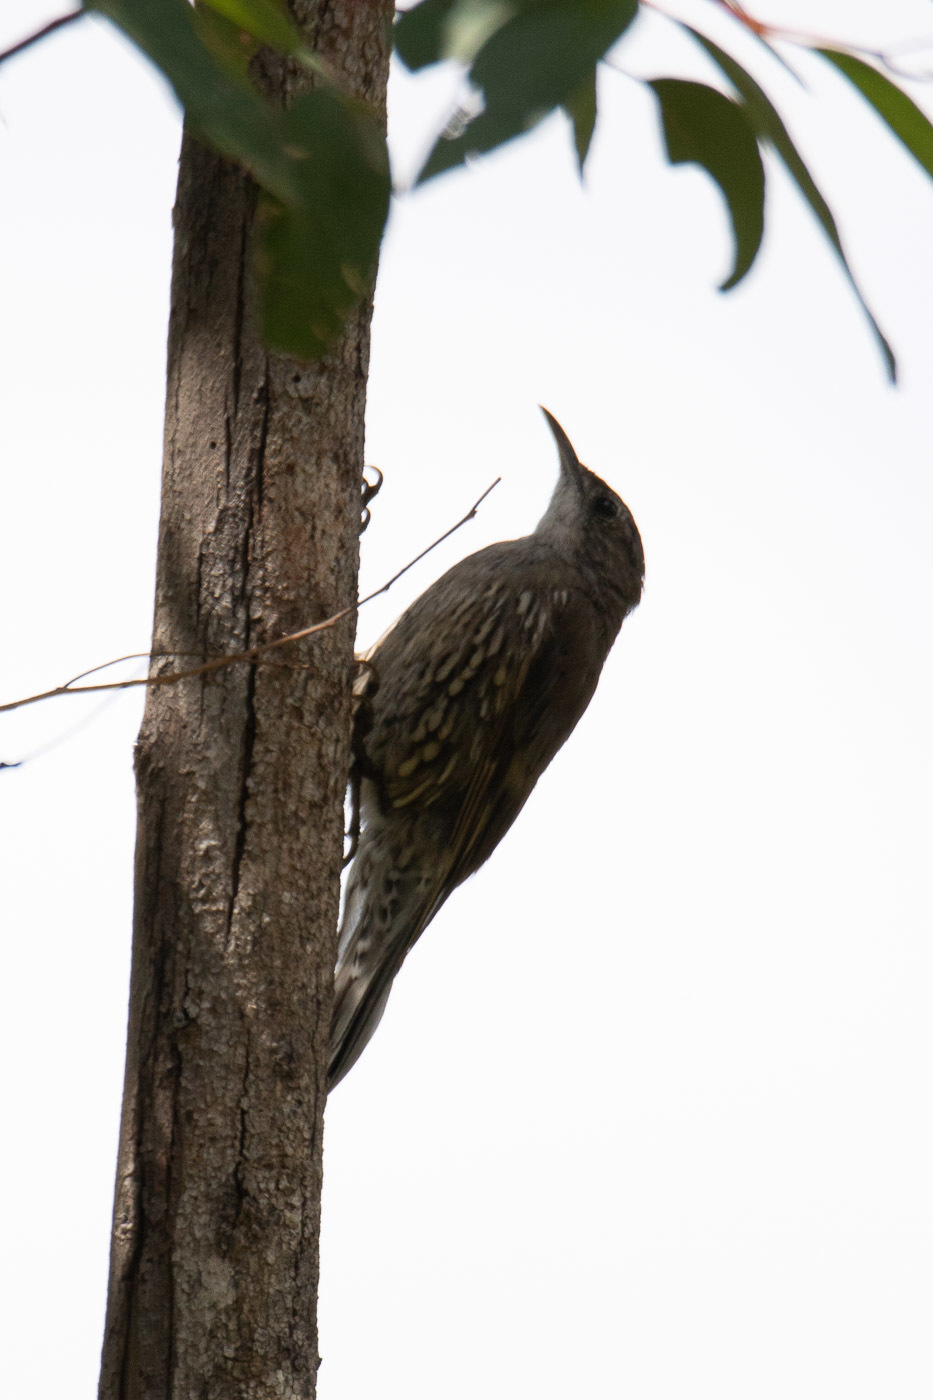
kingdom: Animalia
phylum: Chordata
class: Aves
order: Passeriformes
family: Climacteridae
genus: Cormobates
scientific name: Cormobates leucophaea
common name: White-throated treecreeper
